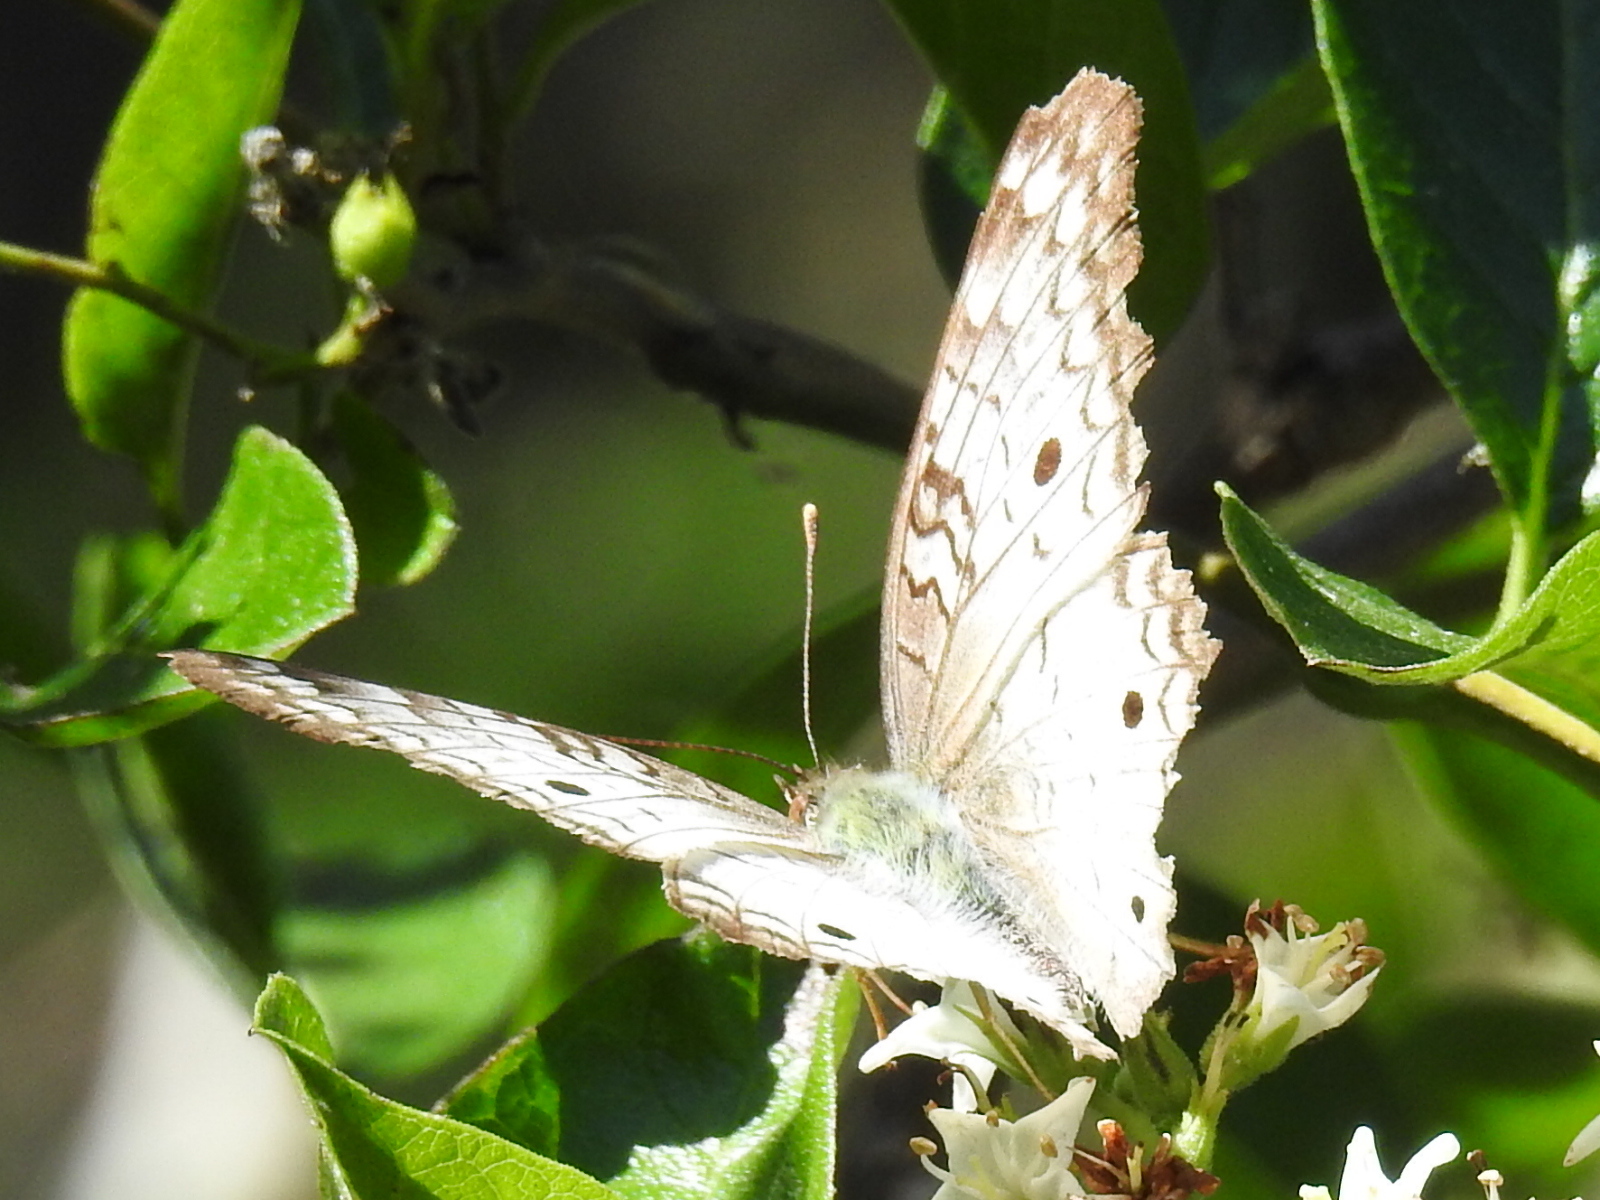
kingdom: Animalia
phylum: Arthropoda
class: Insecta
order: Lepidoptera
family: Nymphalidae
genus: Anartia
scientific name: Anartia jatrophae
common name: White peacock
